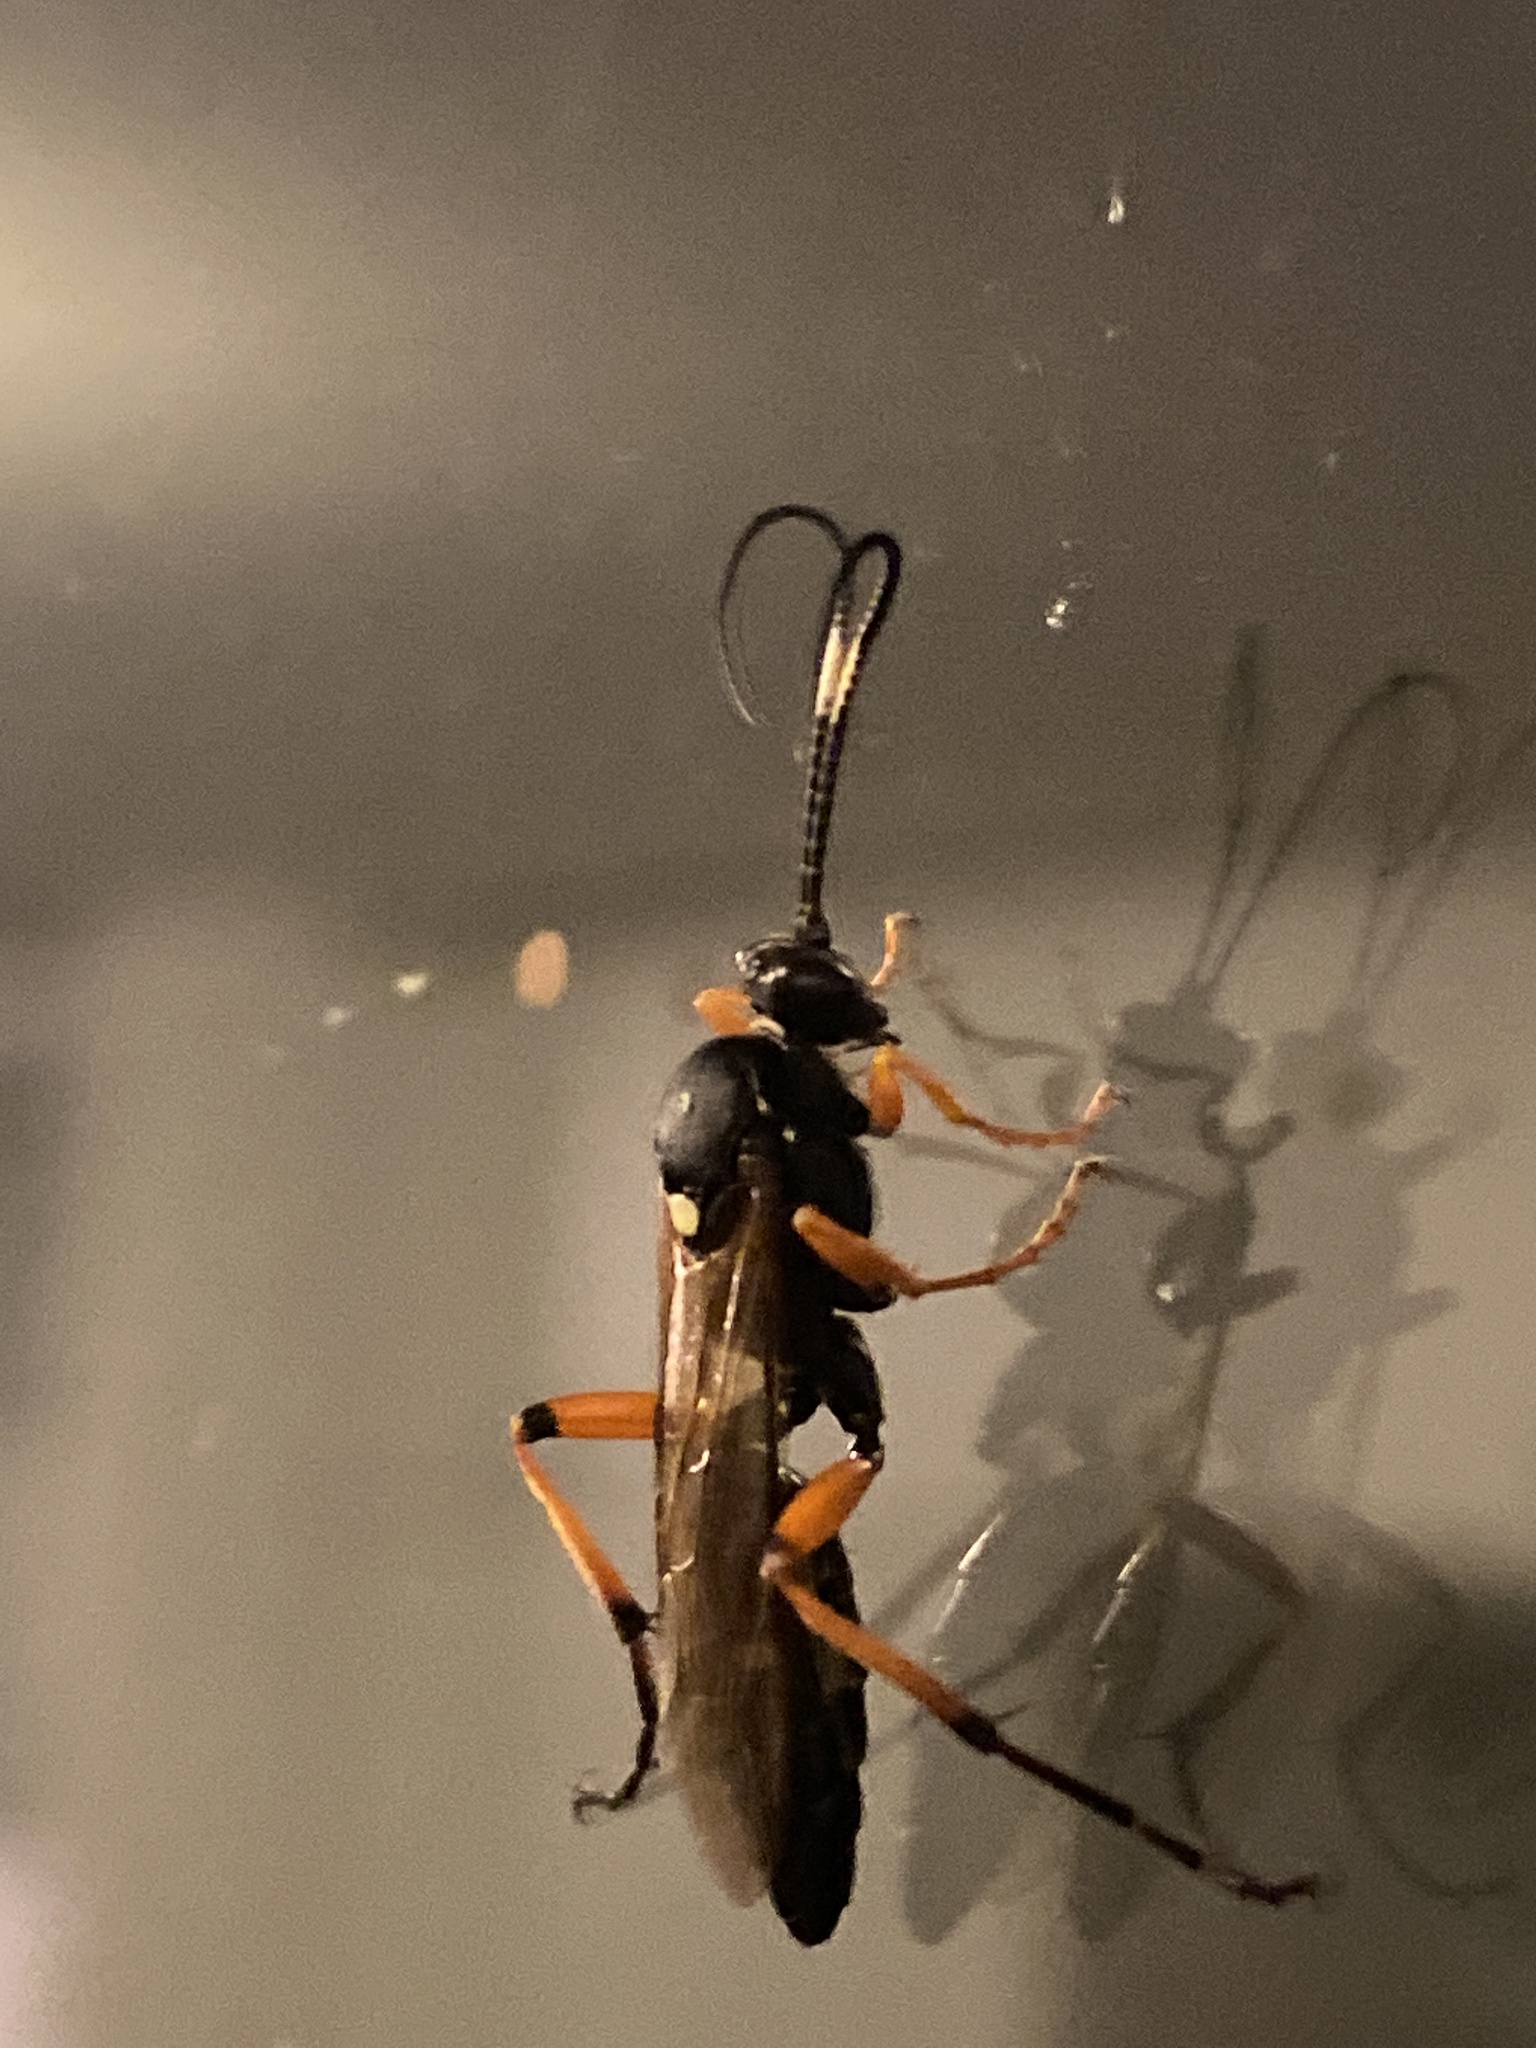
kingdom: Animalia
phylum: Arthropoda
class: Insecta
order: Hymenoptera
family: Ichneumonidae
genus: Diphyus
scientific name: Diphyus quadripunctorius
